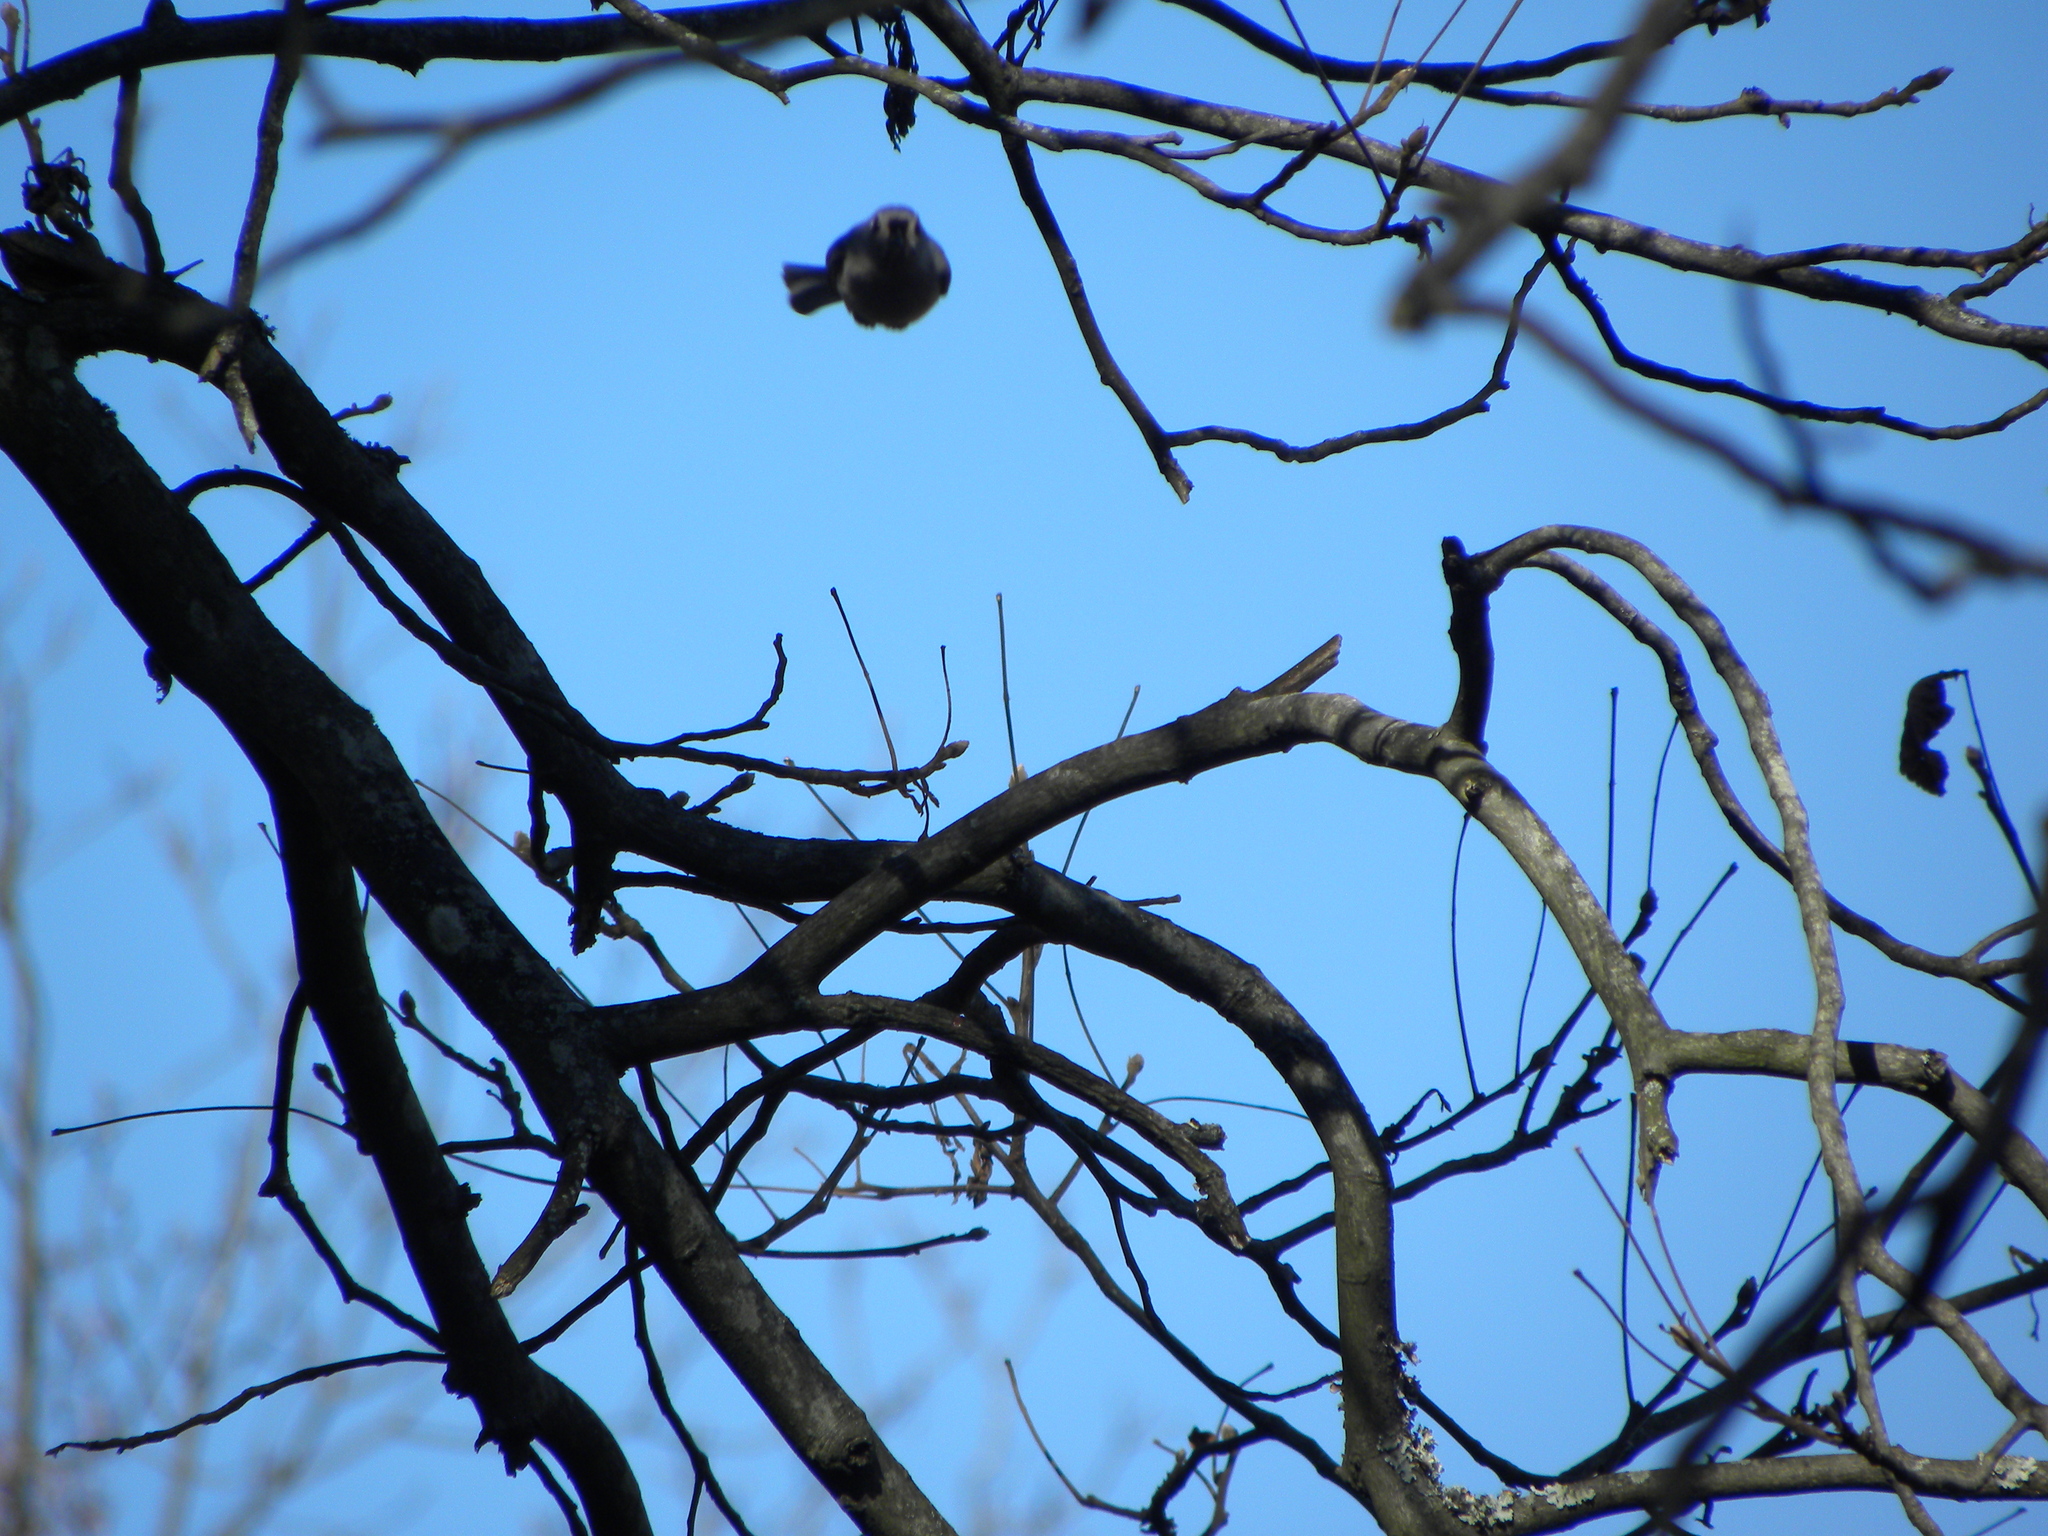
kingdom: Animalia
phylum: Chordata
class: Aves
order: Passeriformes
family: Paridae
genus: Baeolophus
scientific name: Baeolophus bicolor
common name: Tufted titmouse
